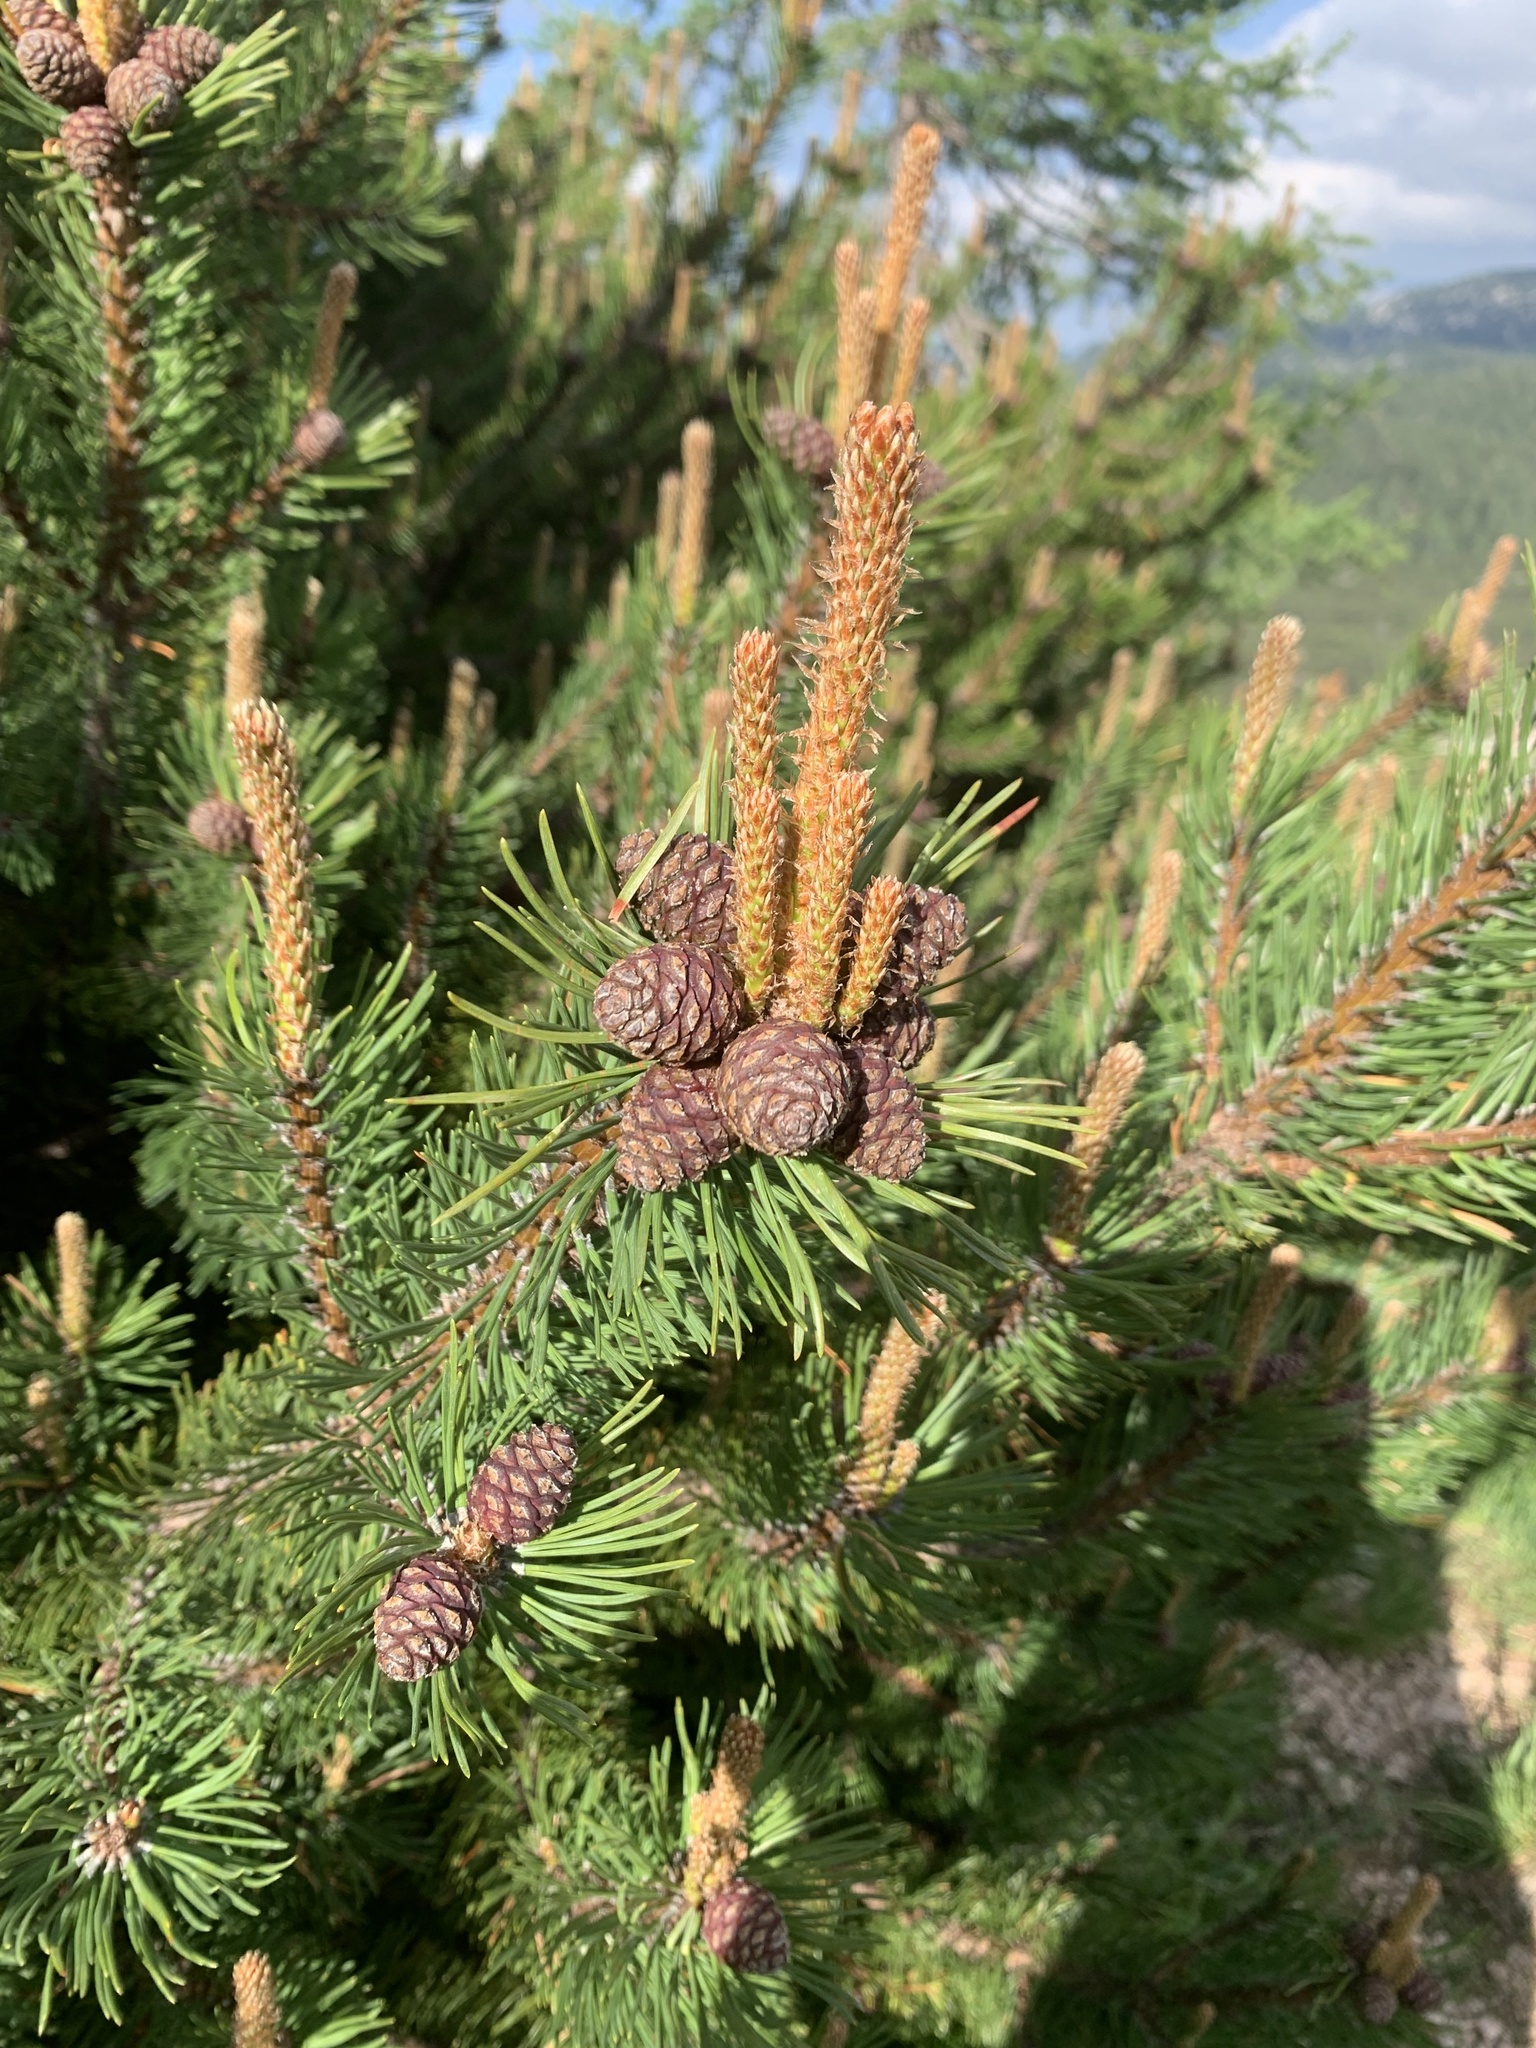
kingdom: Plantae
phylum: Tracheophyta
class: Pinopsida
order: Pinales
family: Pinaceae
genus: Pinus
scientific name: Pinus mugo
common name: Mugo pine
